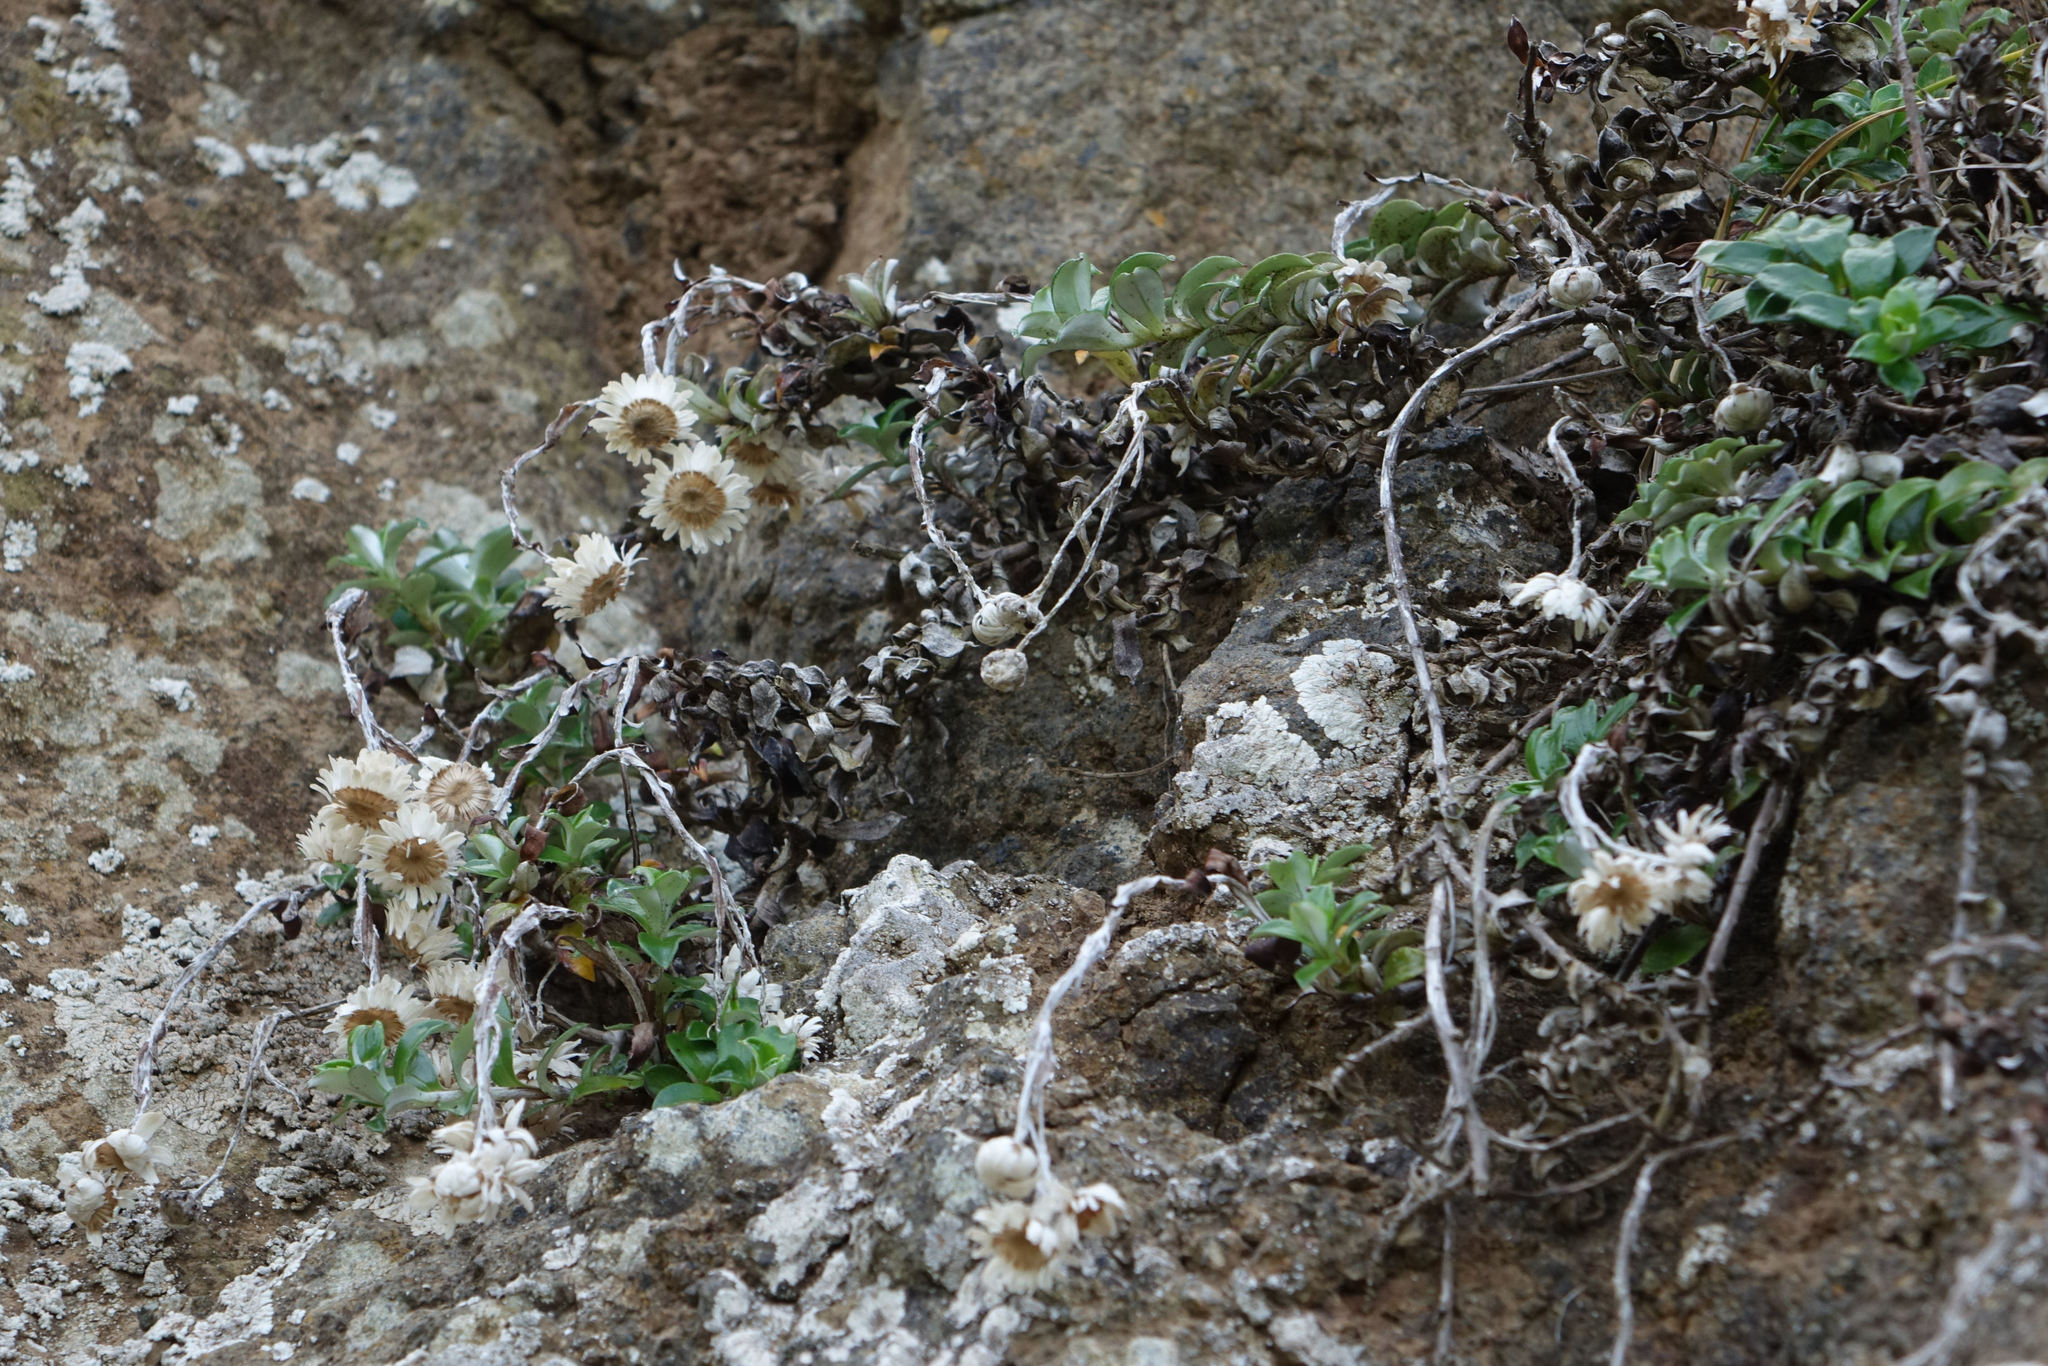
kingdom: Plantae
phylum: Tracheophyta
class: Magnoliopsida
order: Asterales
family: Asteraceae
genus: Anaphalioides
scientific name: Anaphalioides hookeri
